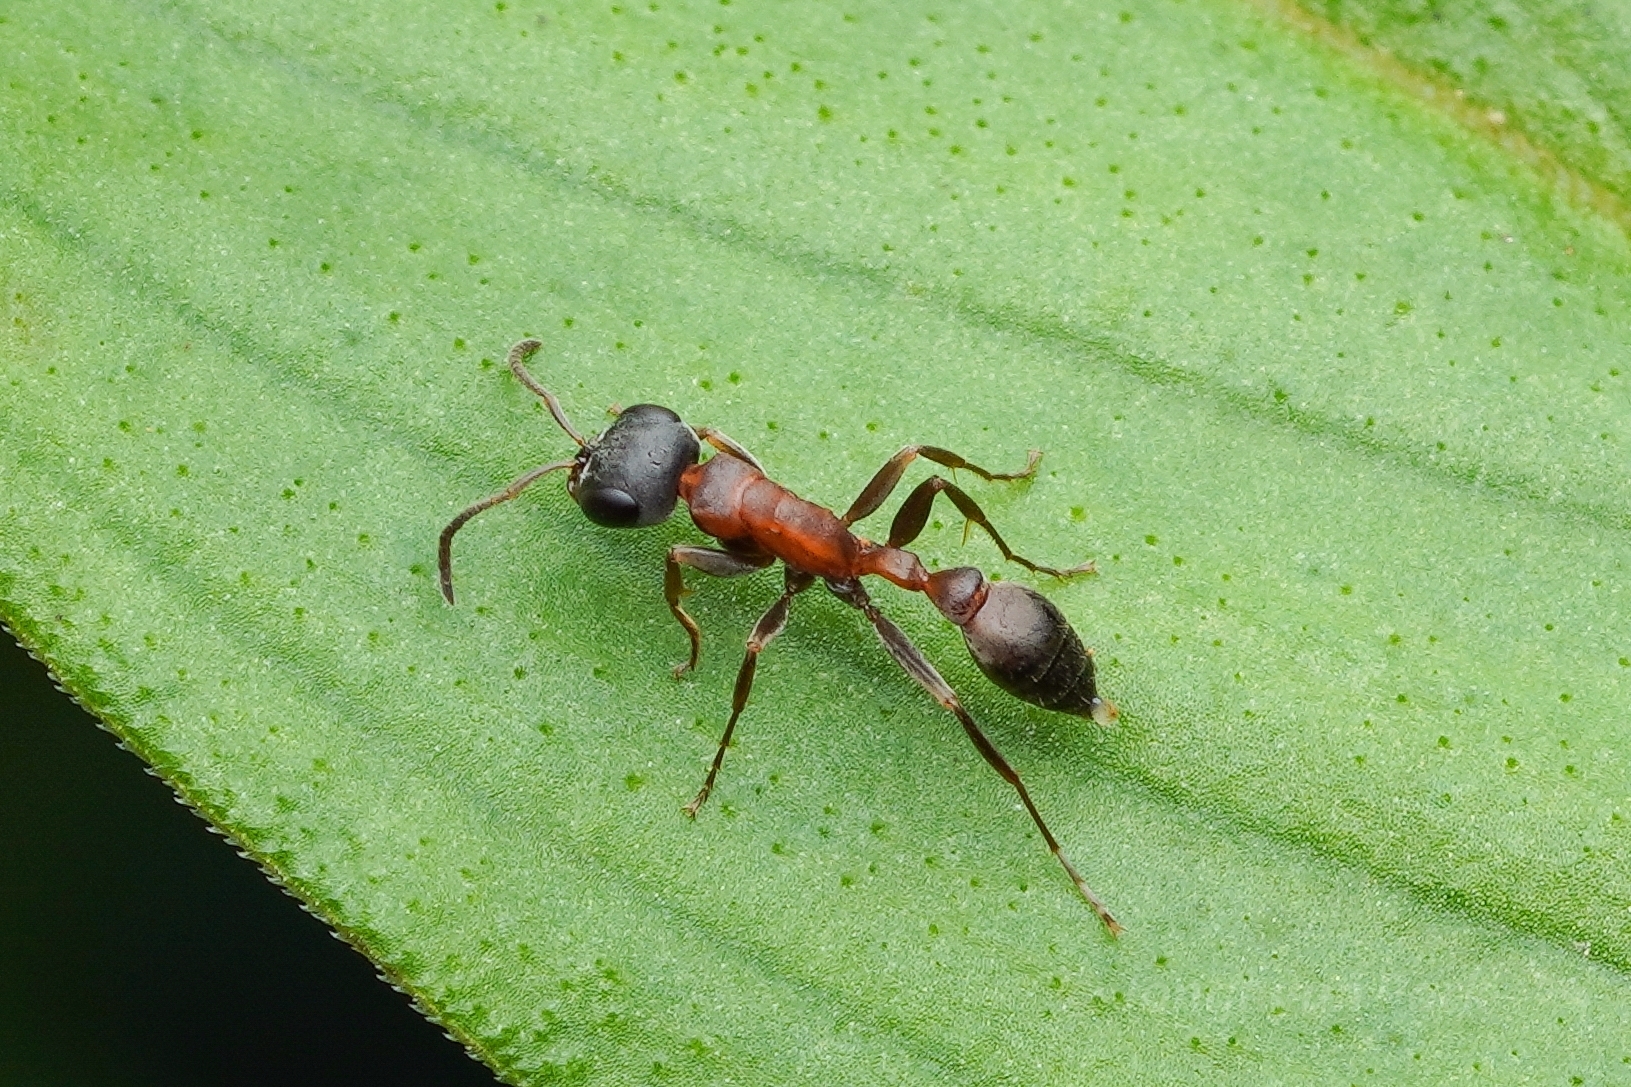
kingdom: Animalia
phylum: Arthropoda
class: Insecta
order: Hymenoptera
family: Formicidae
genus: Pseudomyrmex
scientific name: Pseudomyrmex termitarius
